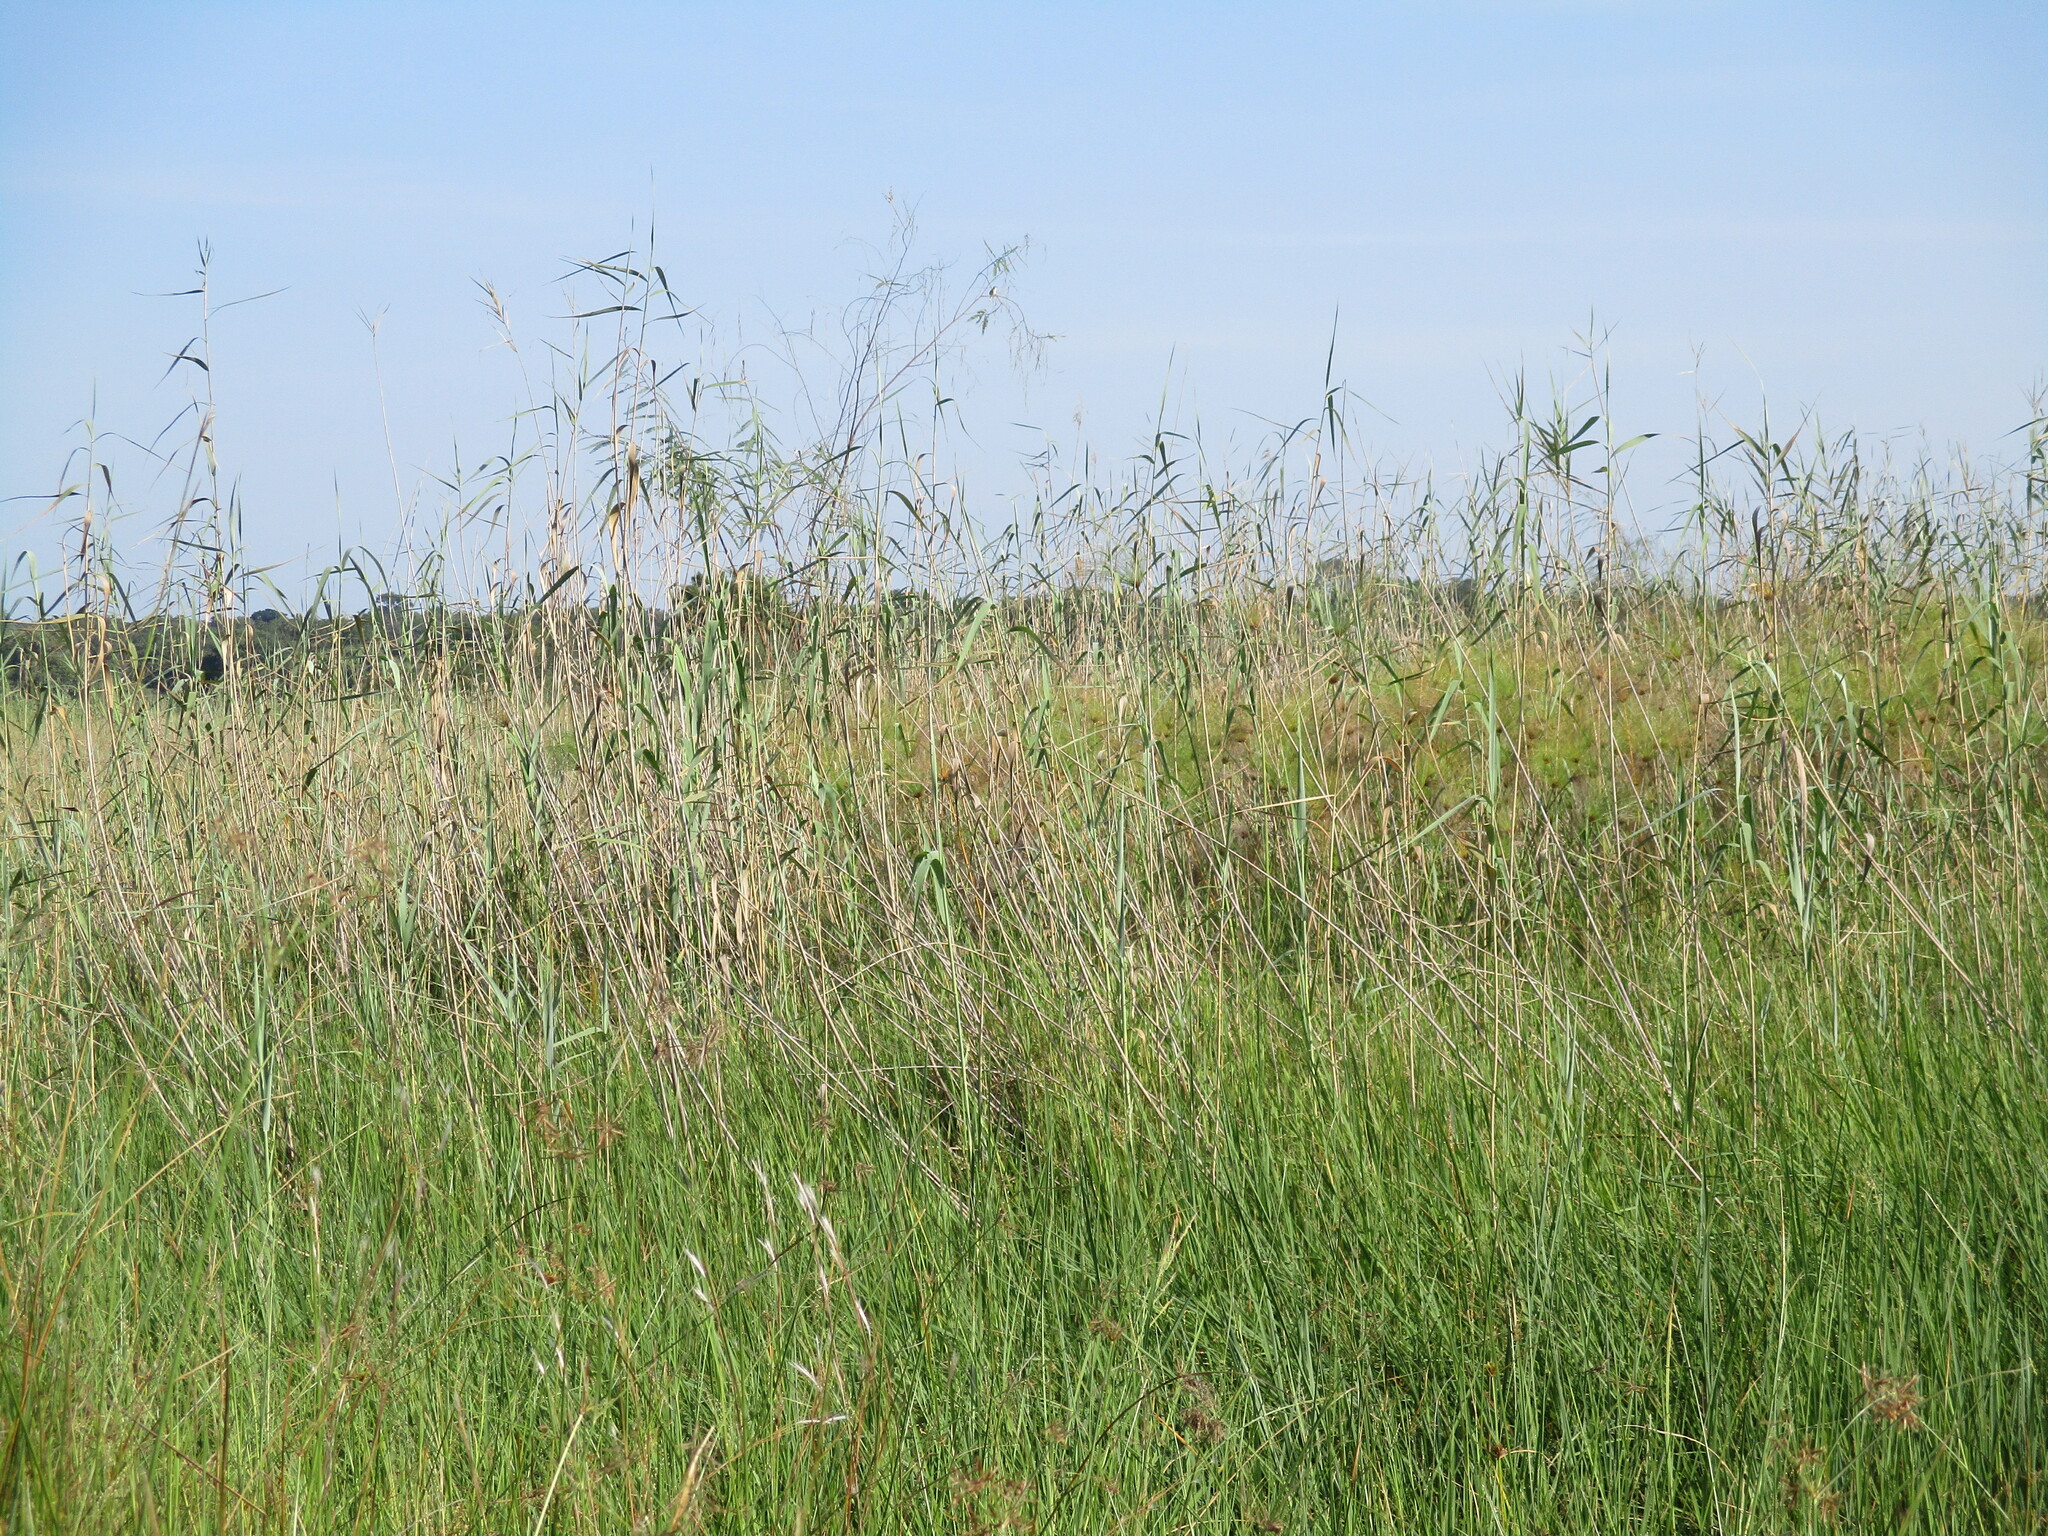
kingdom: Plantae
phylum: Tracheophyta
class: Liliopsida
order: Poales
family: Poaceae
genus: Phragmites
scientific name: Phragmites australis
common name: Common reed
